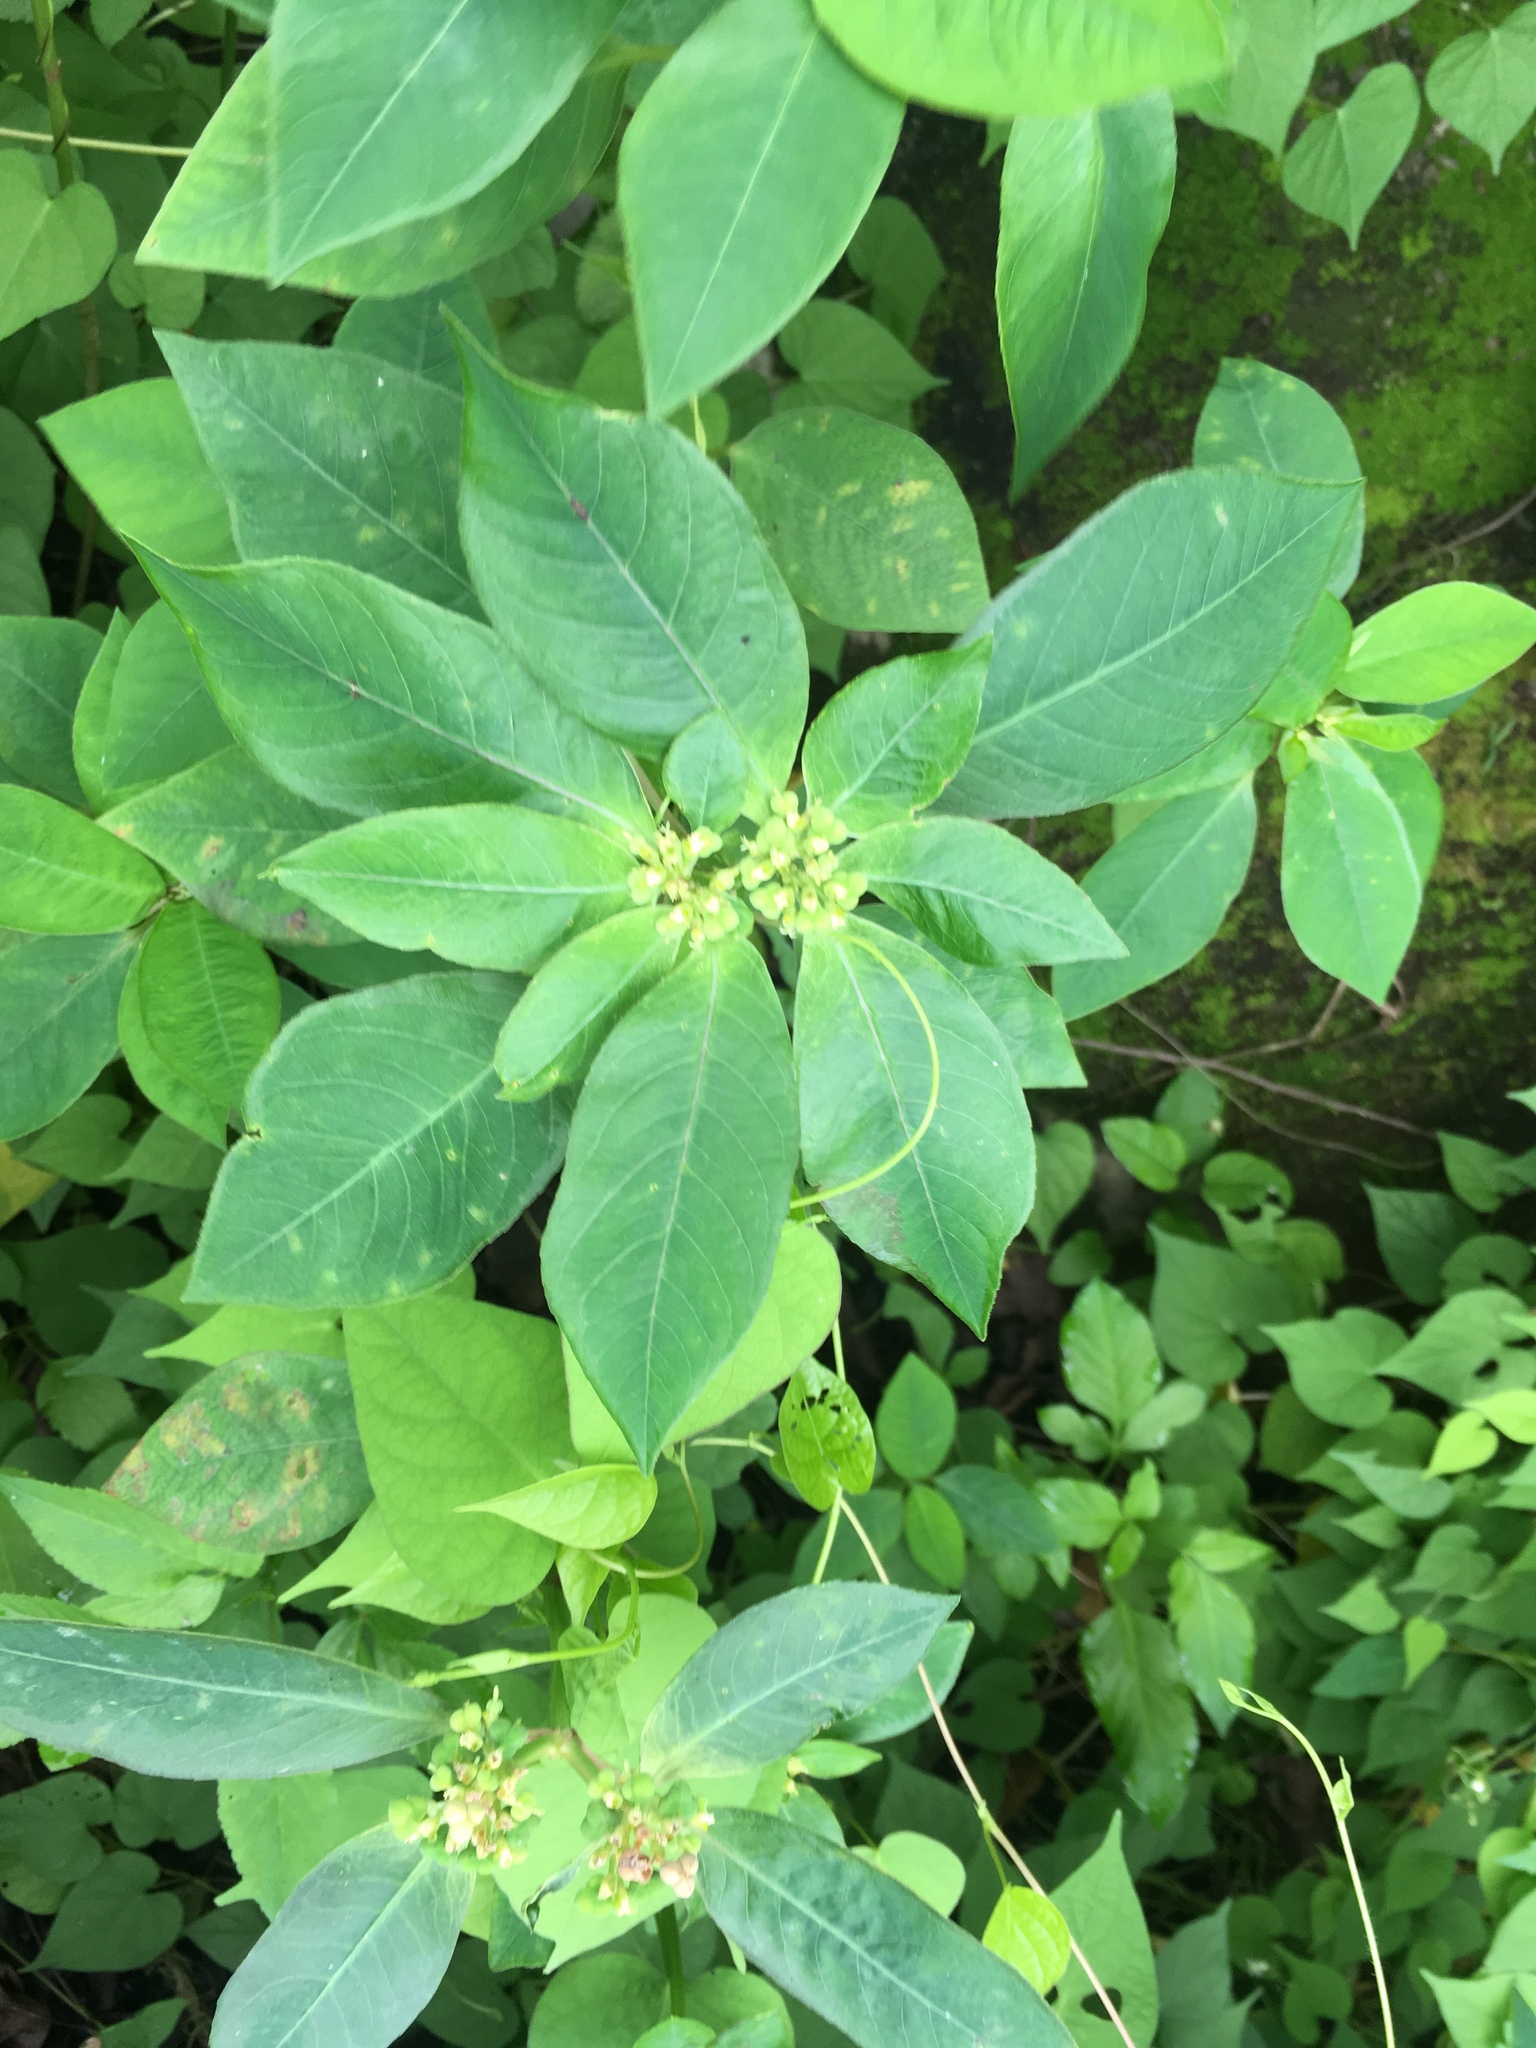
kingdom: Plantae
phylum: Tracheophyta
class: Magnoliopsida
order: Malpighiales
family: Euphorbiaceae
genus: Euphorbia
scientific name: Euphorbia heterophylla
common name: Mexican fireplant
